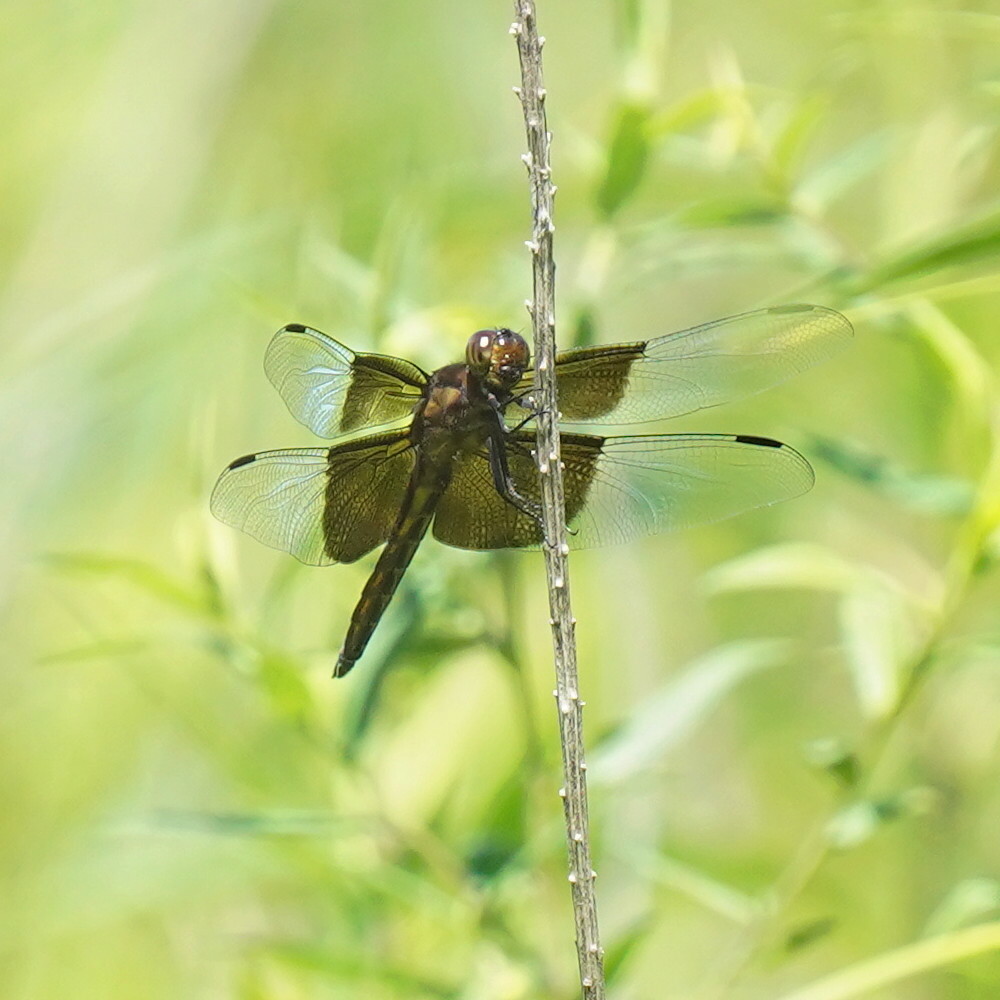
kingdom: Animalia
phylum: Arthropoda
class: Insecta
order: Odonata
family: Libellulidae
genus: Libellula
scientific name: Libellula luctuosa
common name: Widow skimmer
